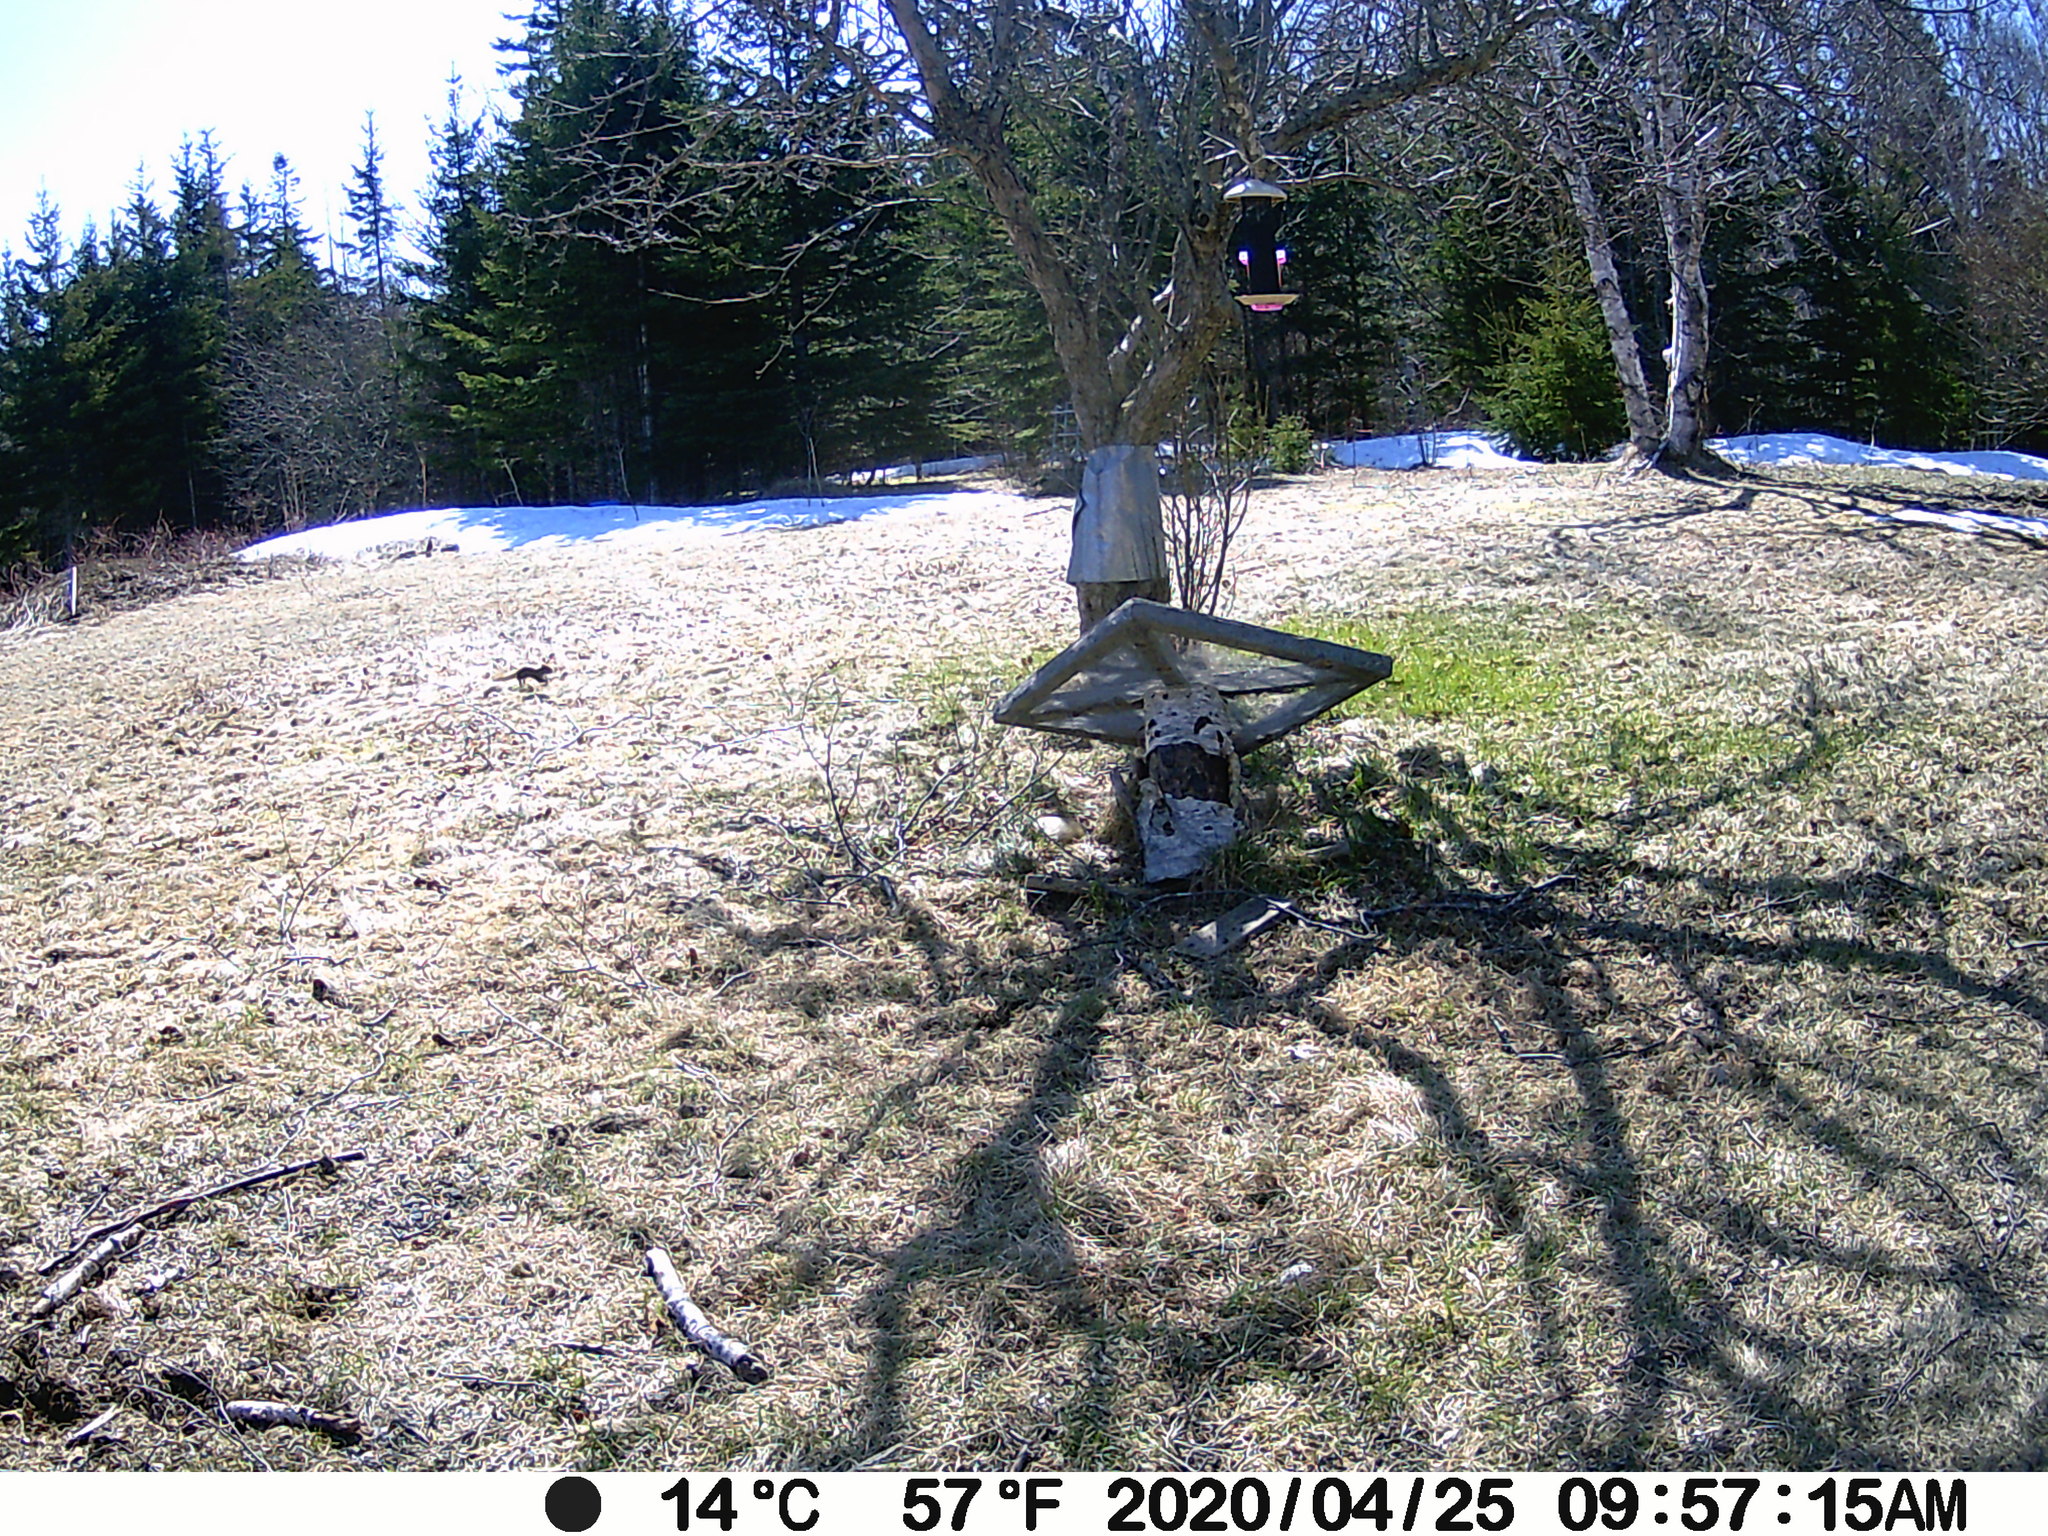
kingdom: Animalia
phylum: Chordata
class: Mammalia
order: Rodentia
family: Sciuridae
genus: Tamiasciurus
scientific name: Tamiasciurus hudsonicus
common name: Red squirrel
